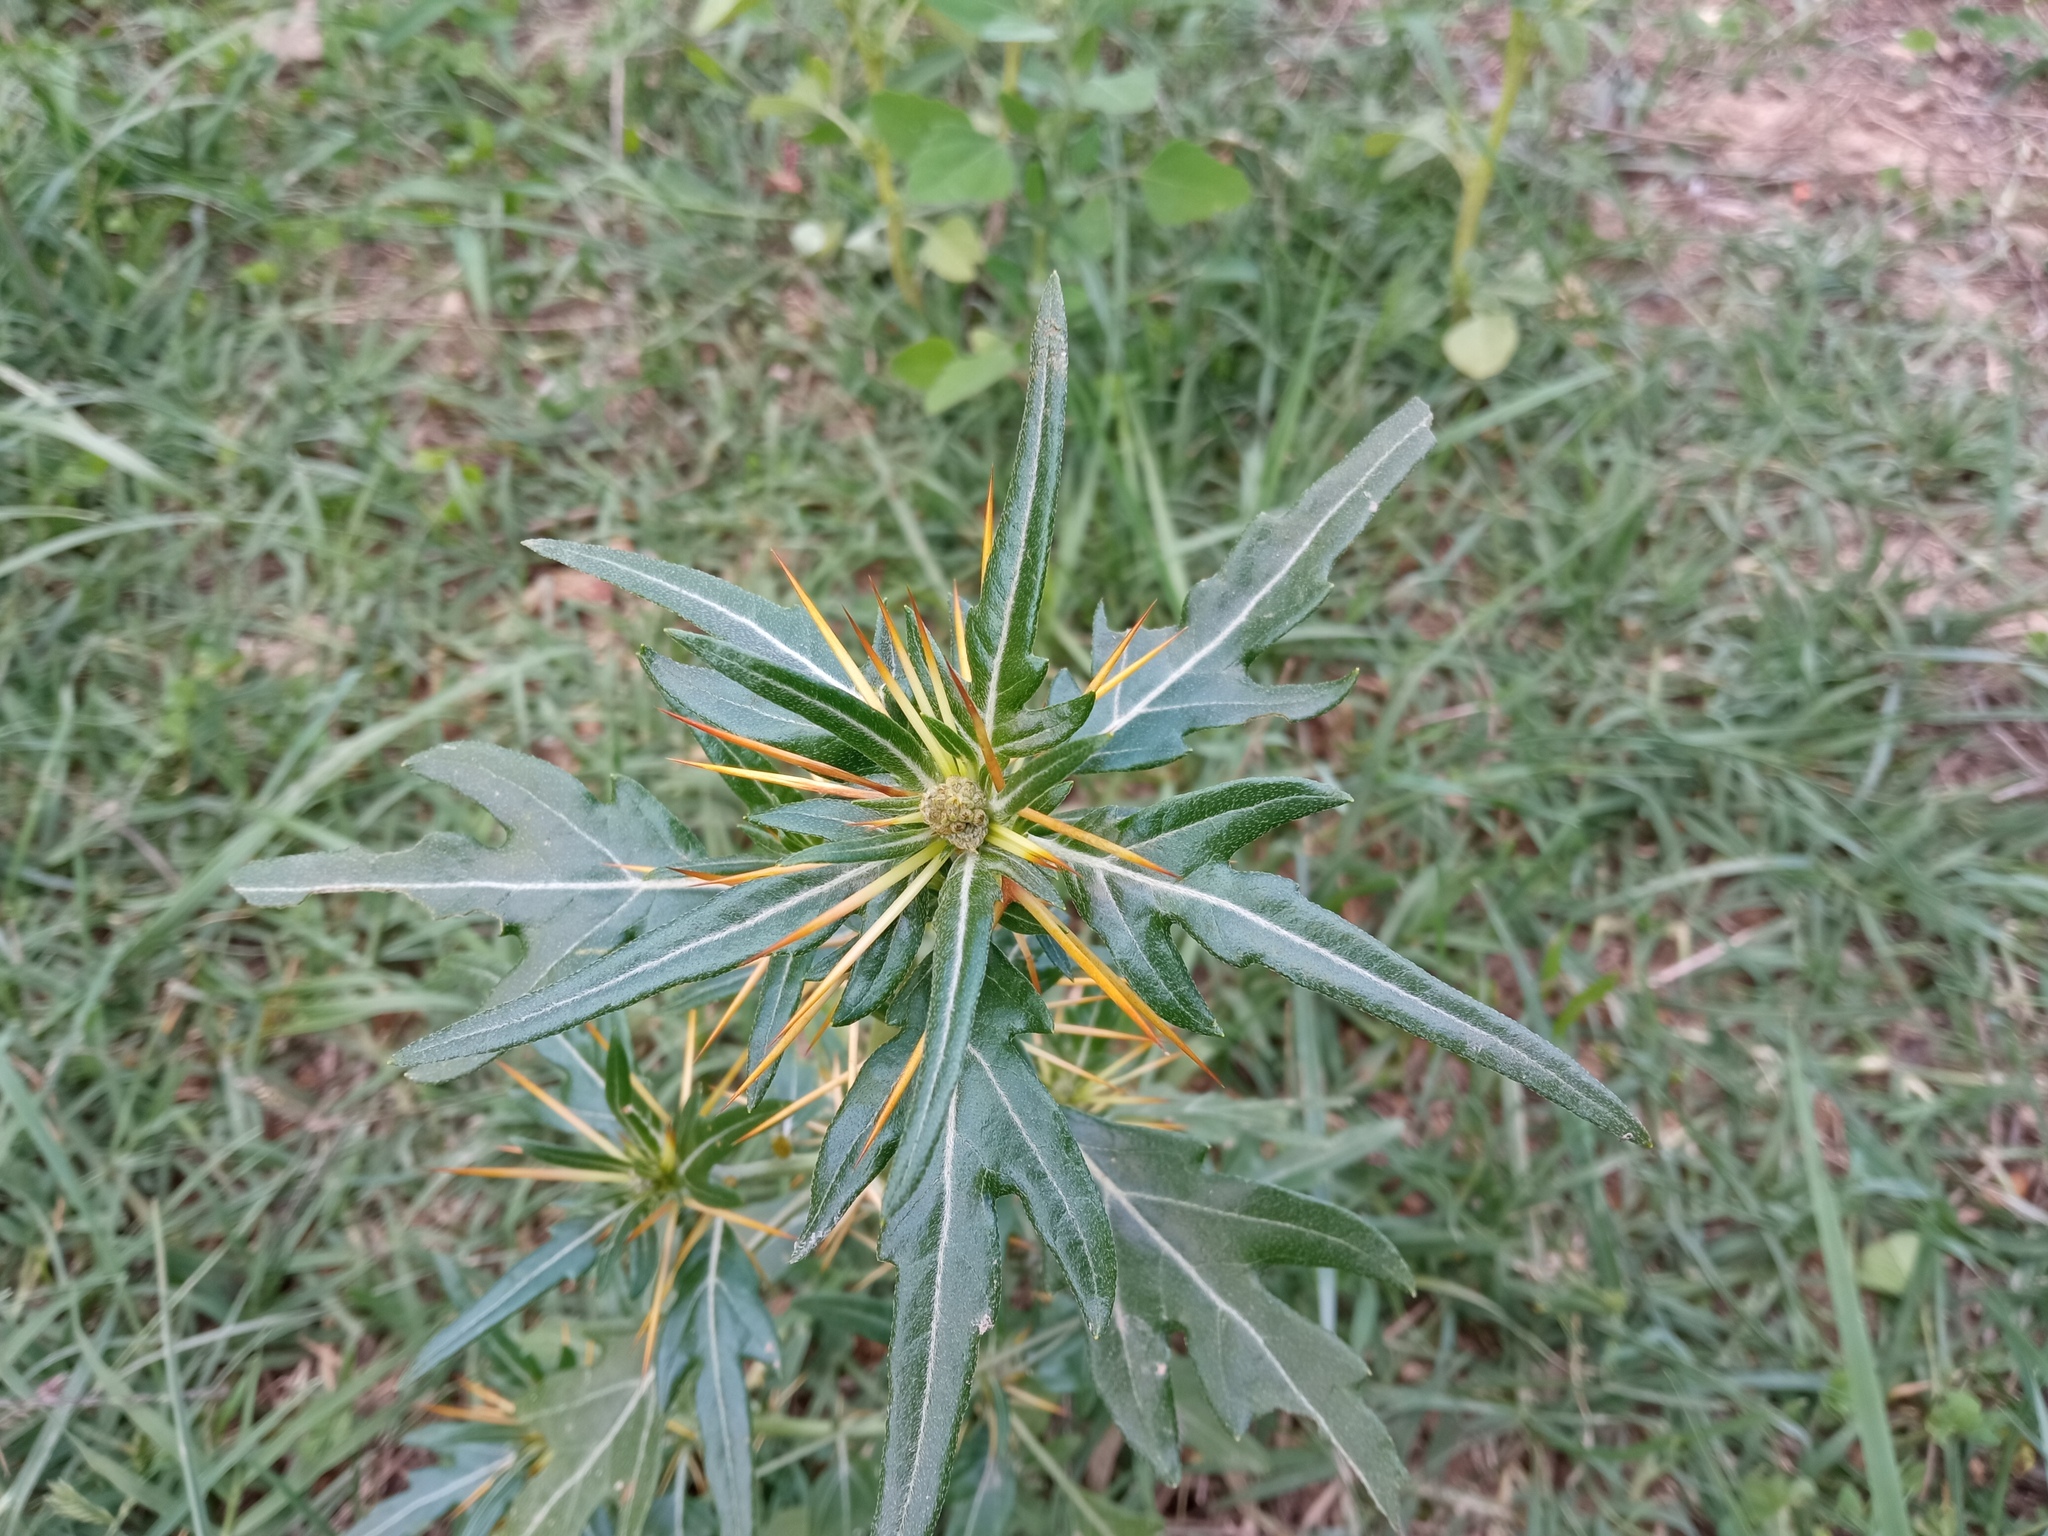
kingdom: Plantae
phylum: Tracheophyta
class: Magnoliopsida
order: Asterales
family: Asteraceae
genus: Xanthium
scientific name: Xanthium spinosum
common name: Spiny cocklebur
